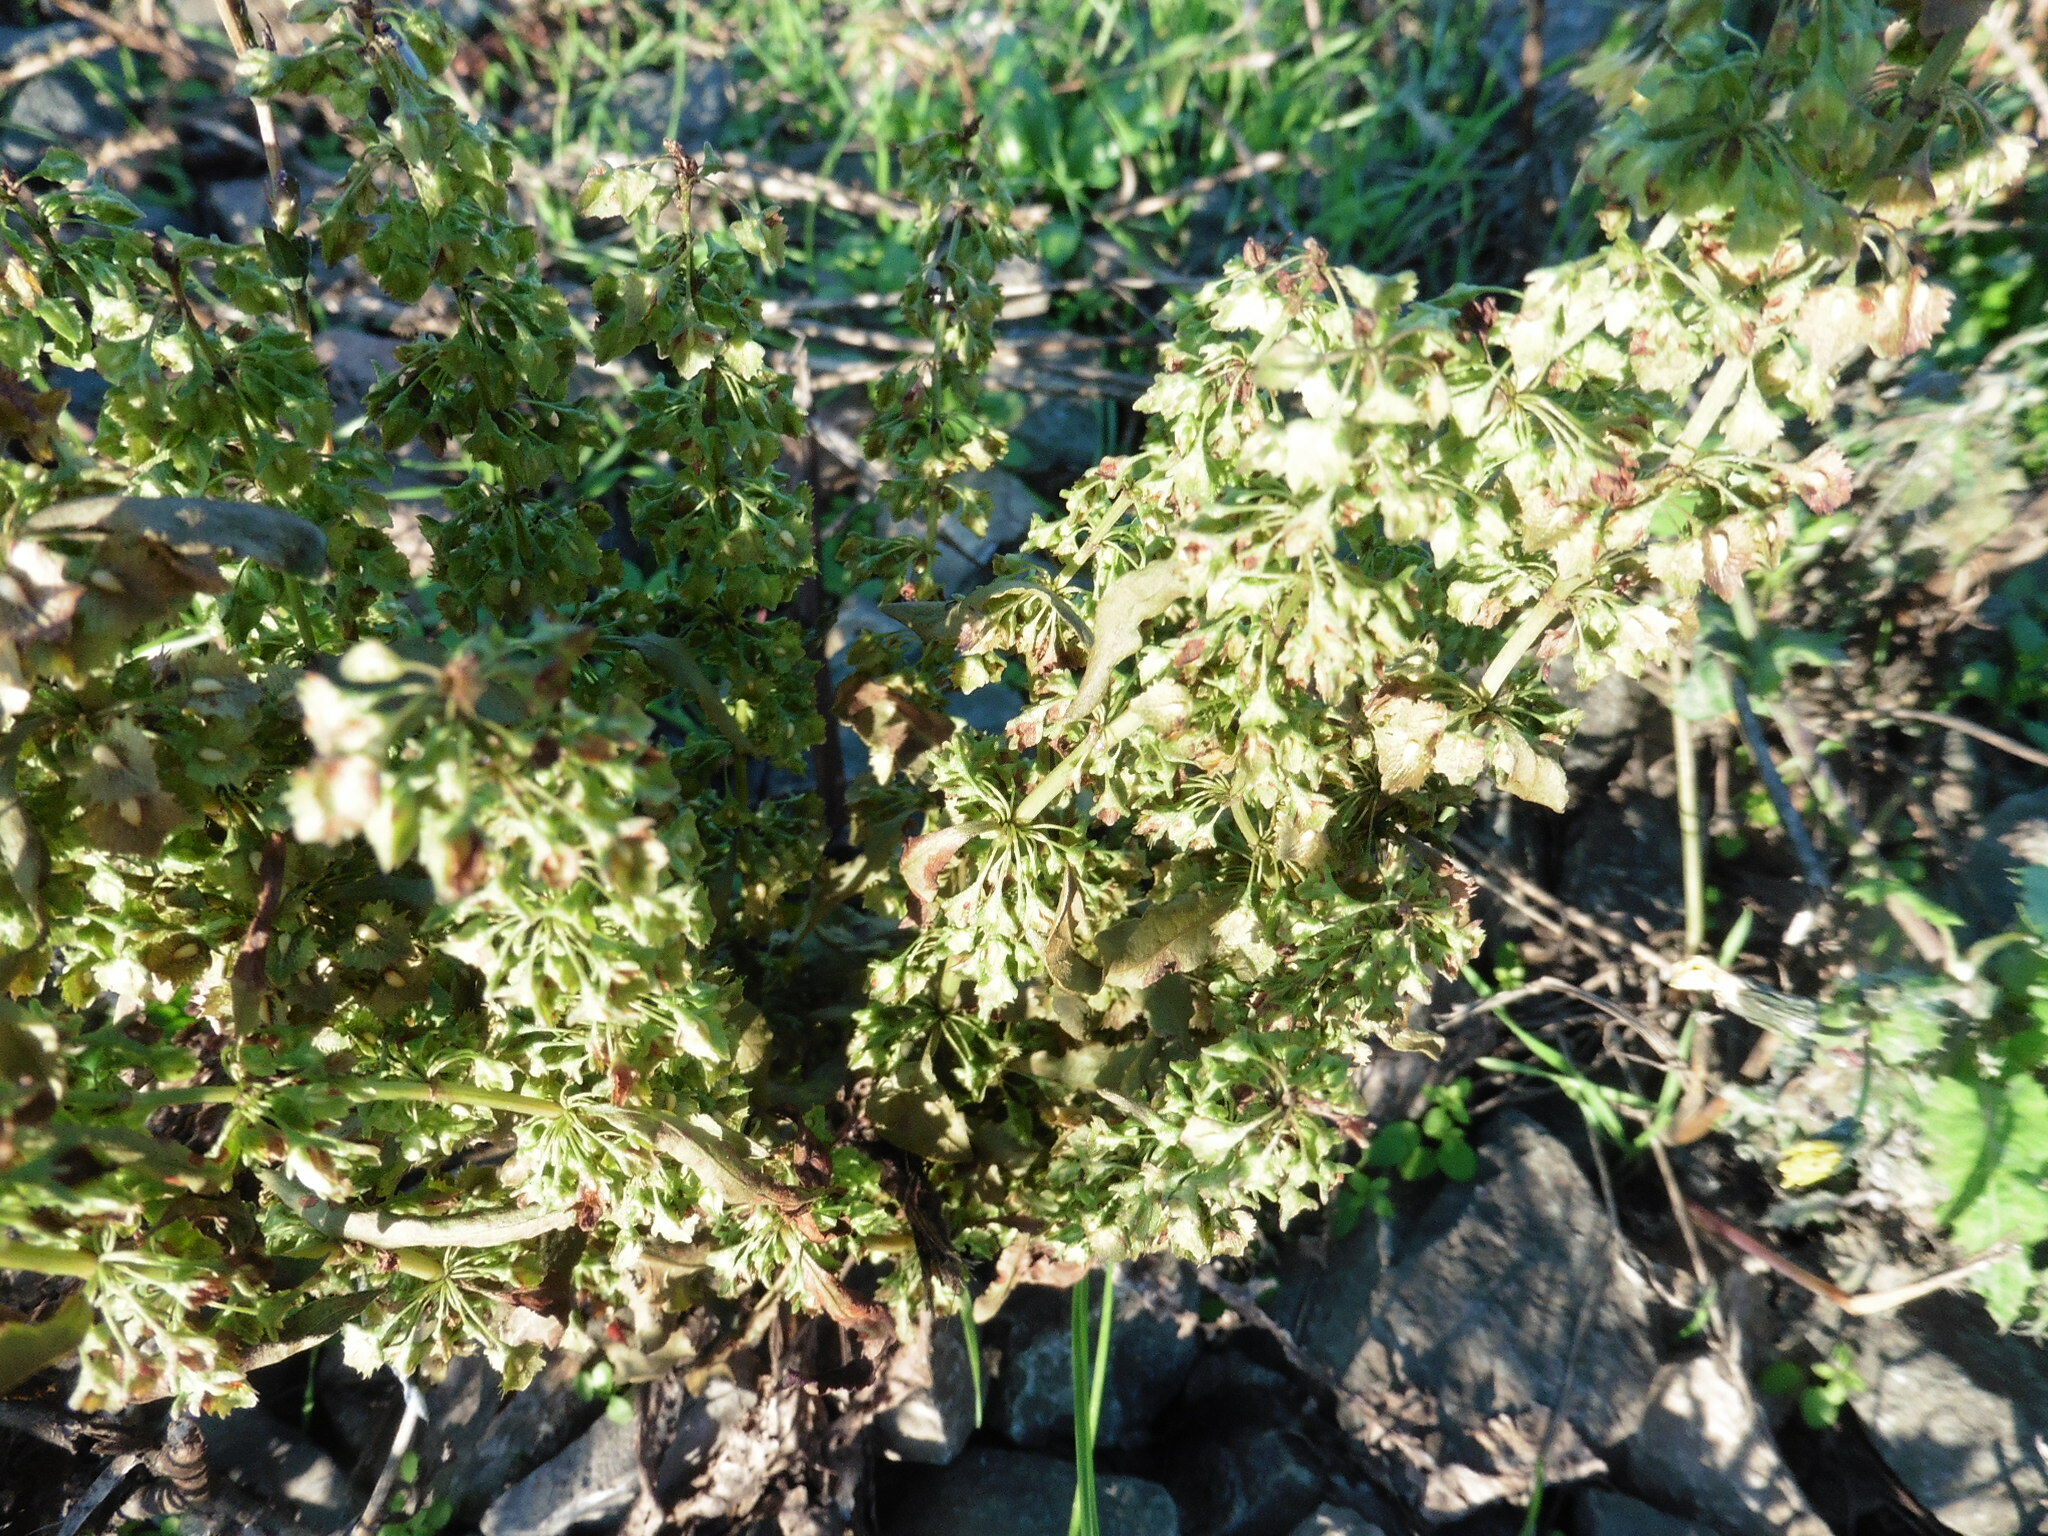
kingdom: Plantae
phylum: Tracheophyta
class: Magnoliopsida
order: Caryophyllales
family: Polygonaceae
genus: Rumex
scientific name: Rumex stenophyllus
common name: Narrowleaf dock
